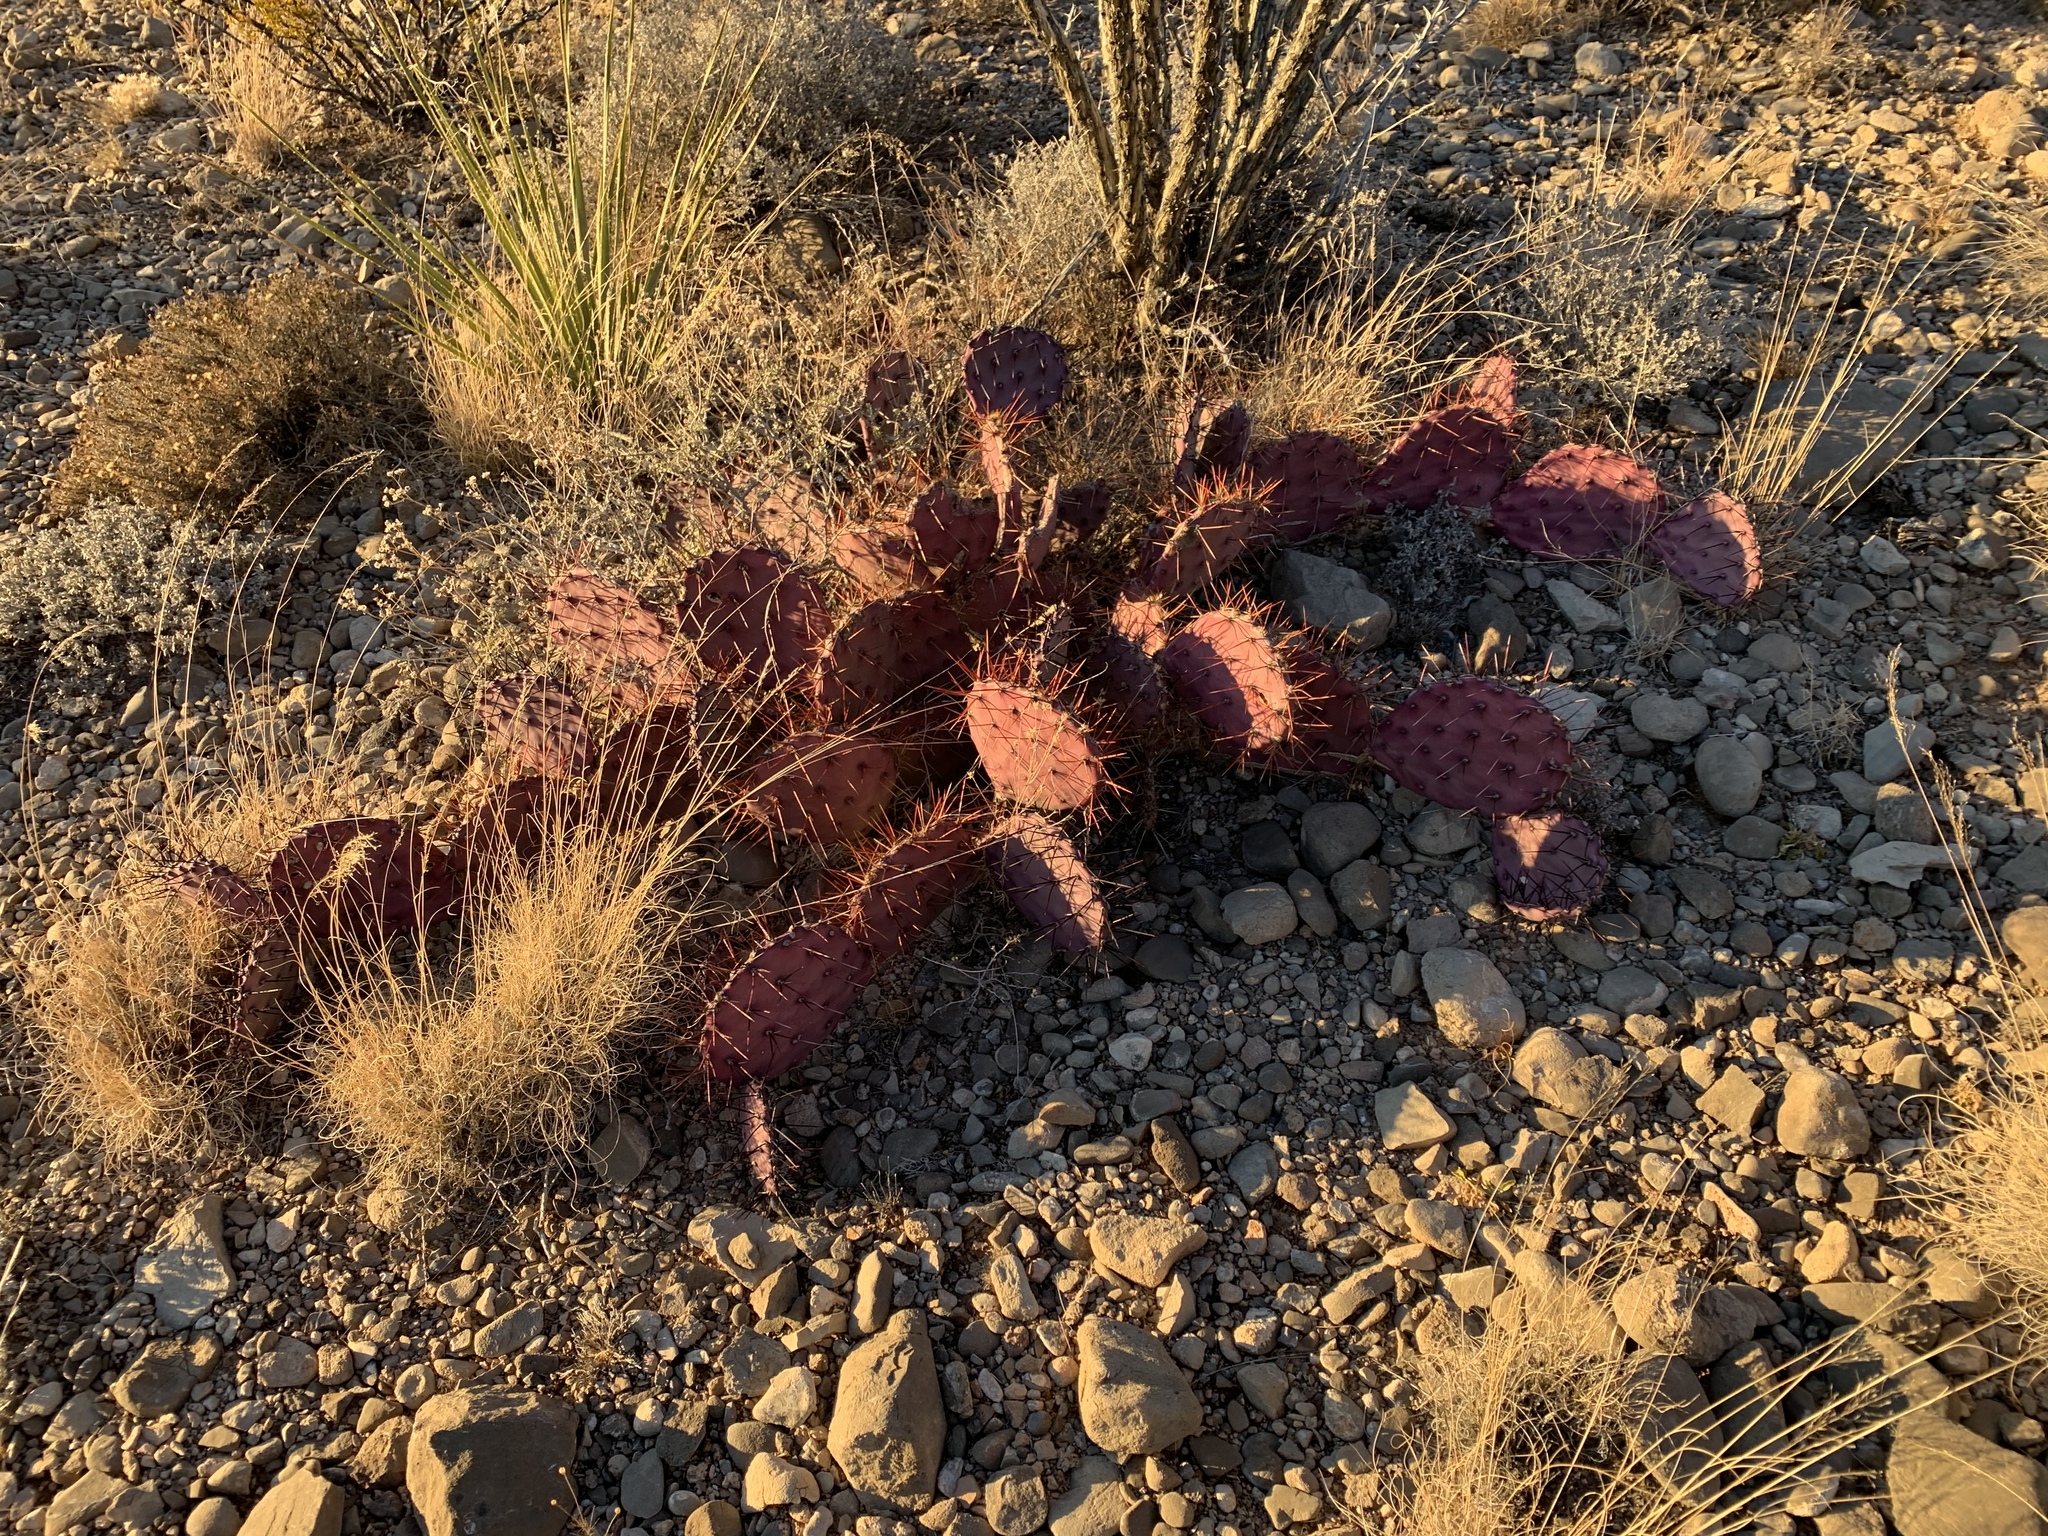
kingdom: Plantae
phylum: Tracheophyta
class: Magnoliopsida
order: Caryophyllales
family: Cactaceae
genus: Opuntia
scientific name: Opuntia macrocentra
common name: Purple prickly-pear
